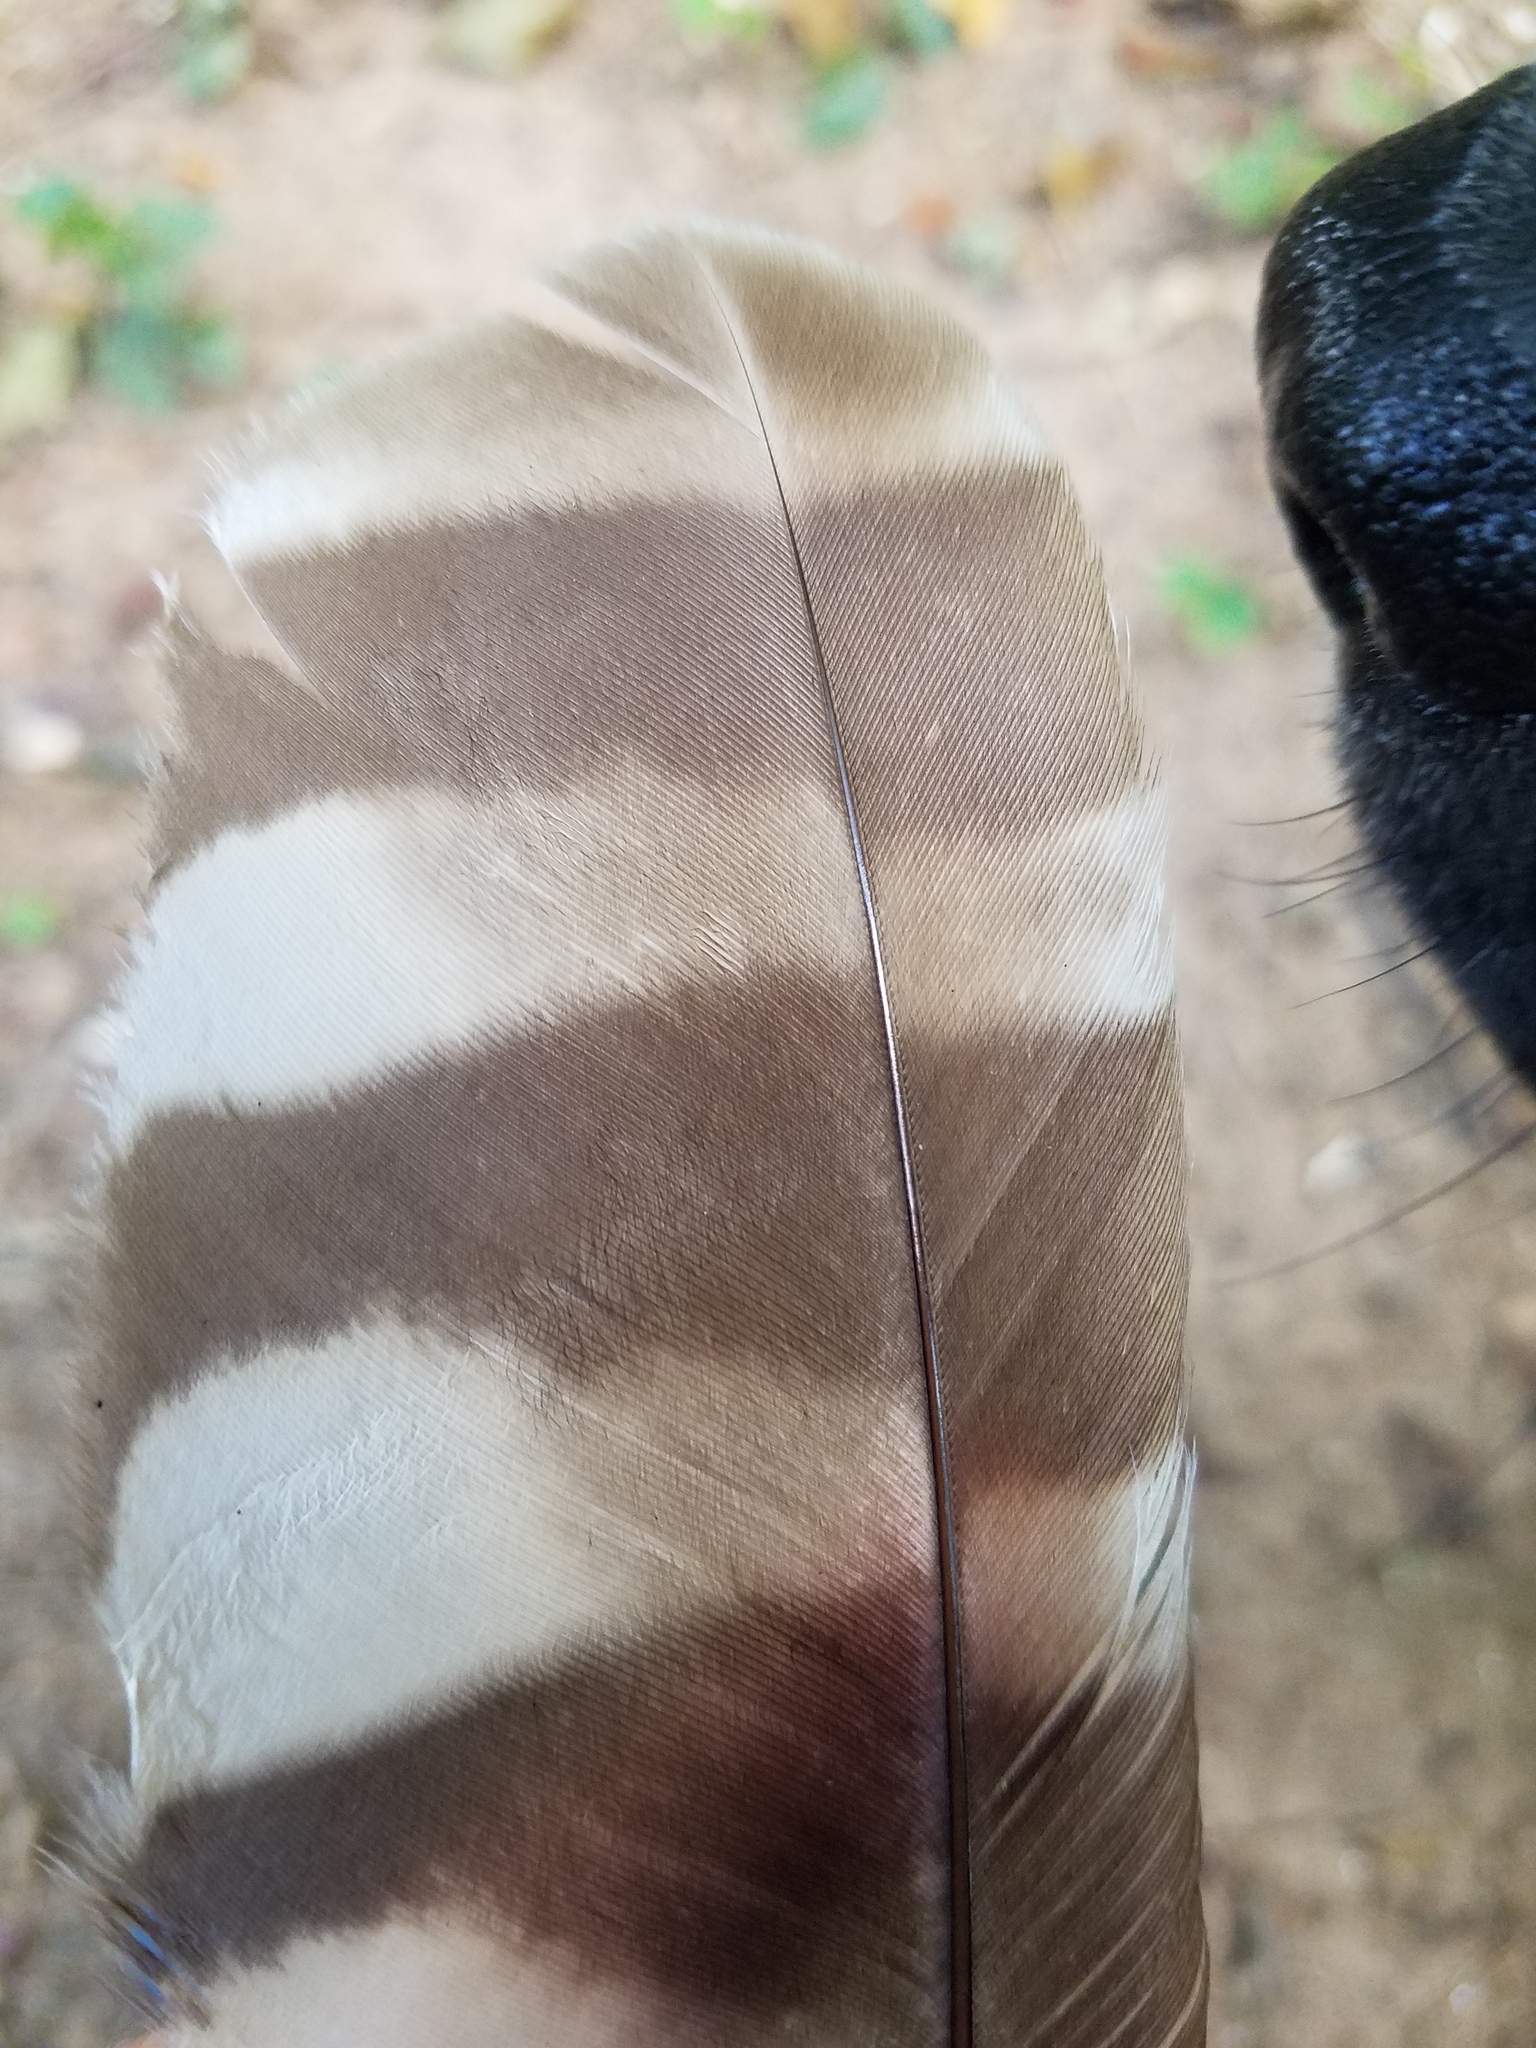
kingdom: Animalia
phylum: Chordata
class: Aves
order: Strigiformes
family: Strigidae
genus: Strix
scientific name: Strix varia
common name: Barred owl
